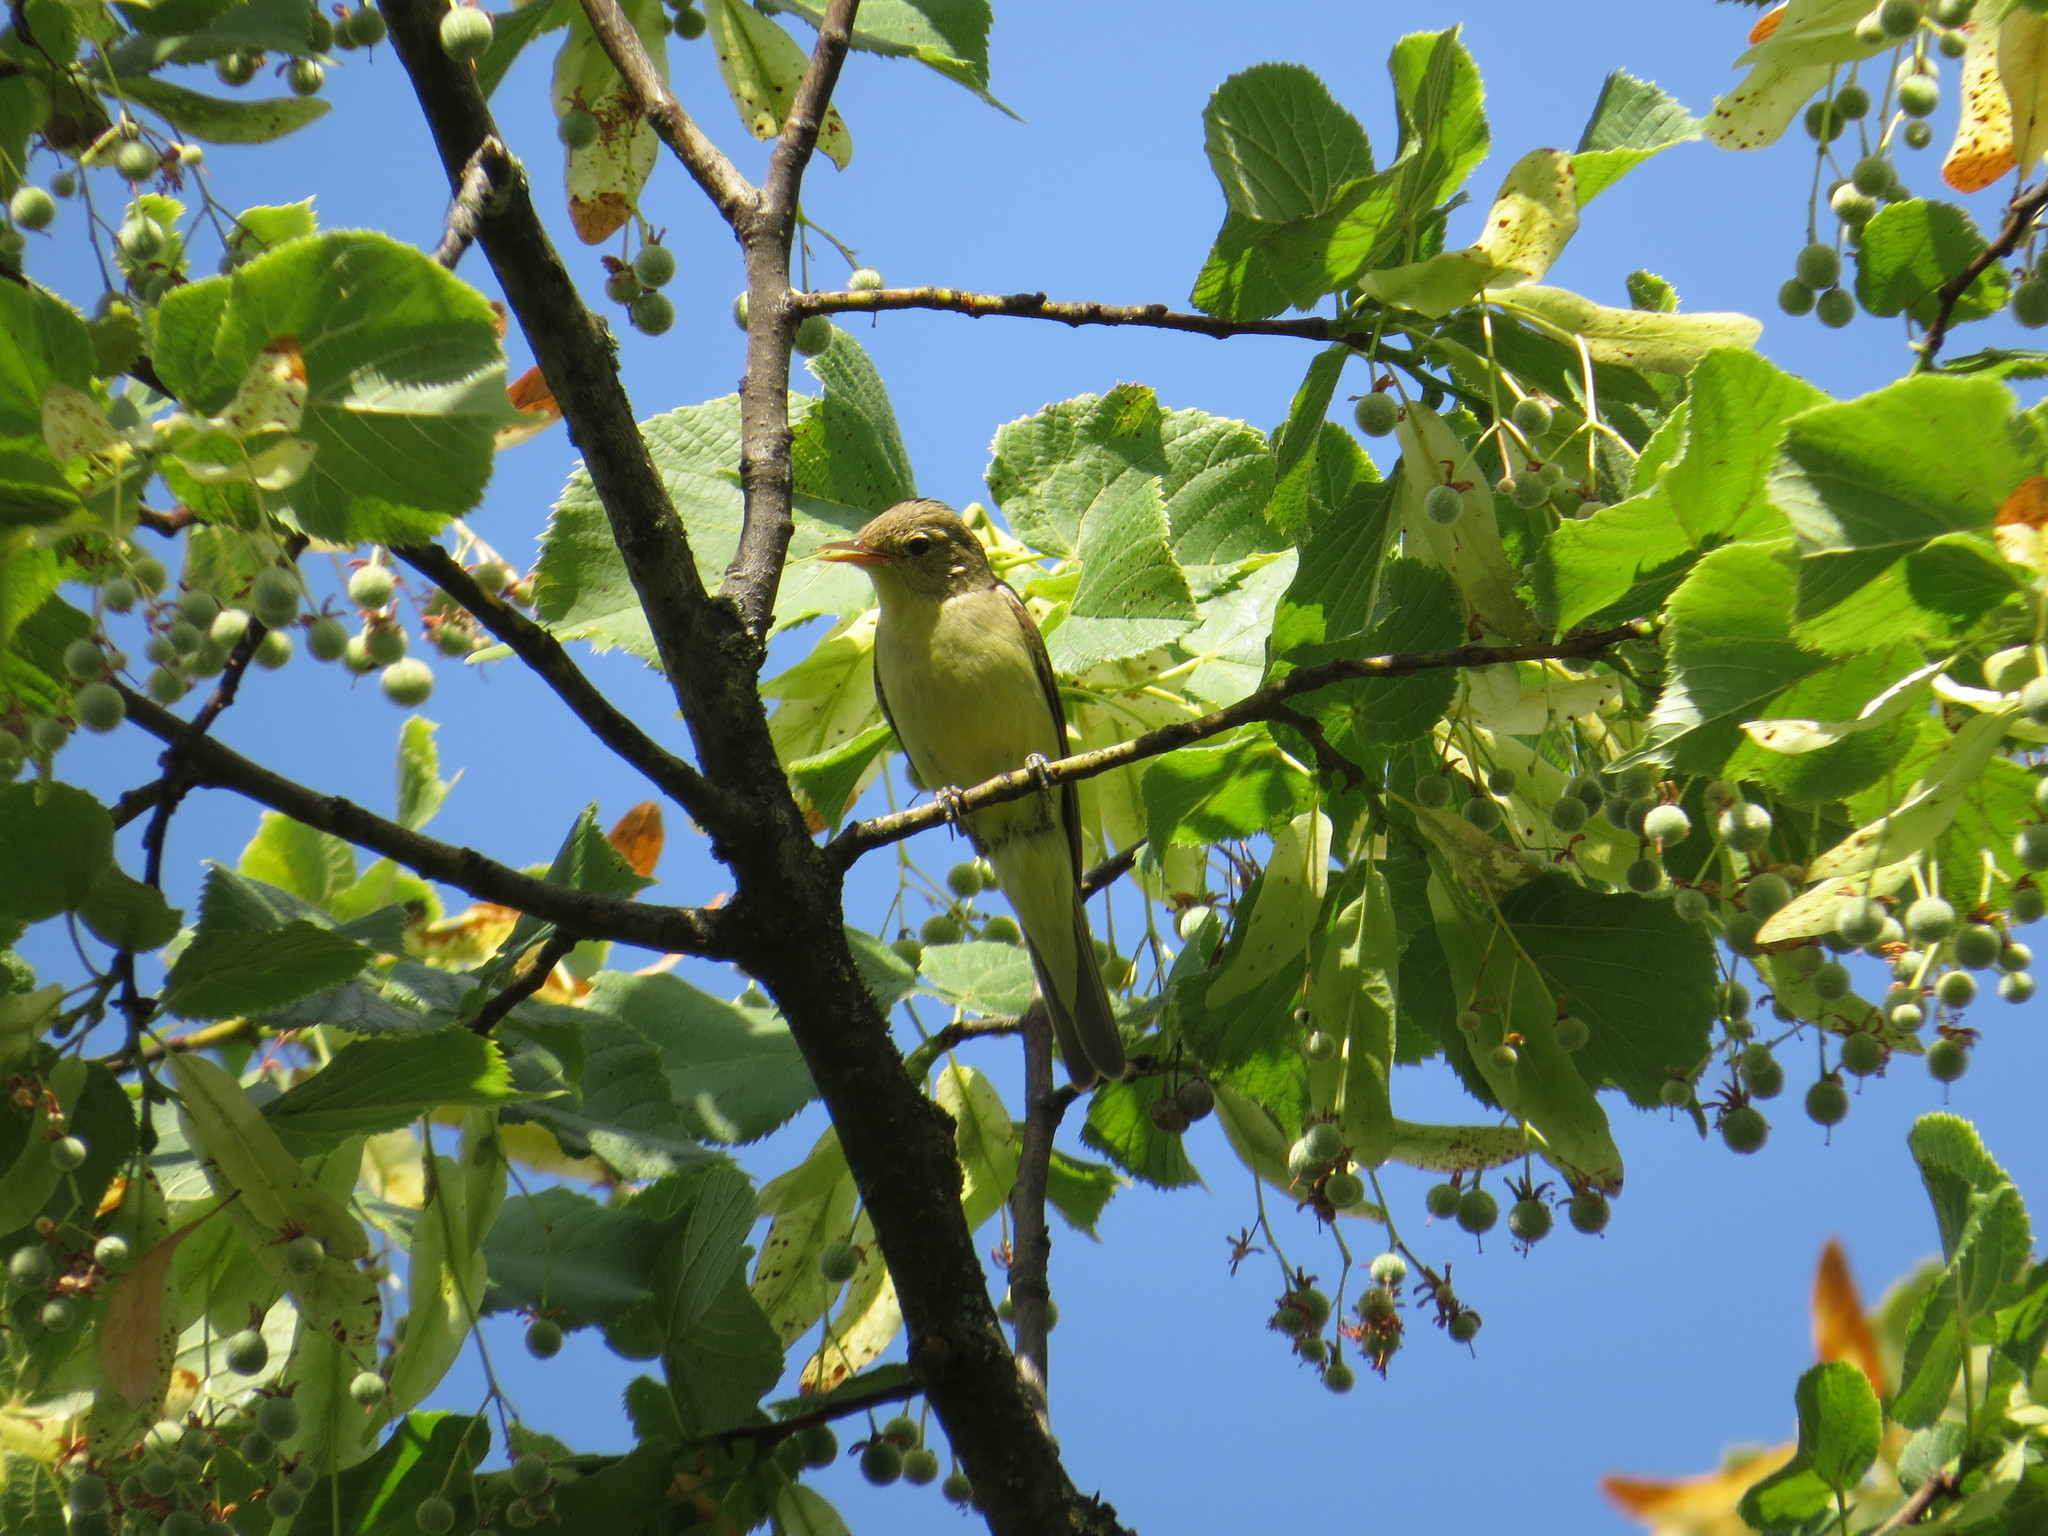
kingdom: Animalia
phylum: Chordata
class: Aves
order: Passeriformes
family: Acrocephalidae
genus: Hippolais
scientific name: Hippolais icterina
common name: Icterine warbler
